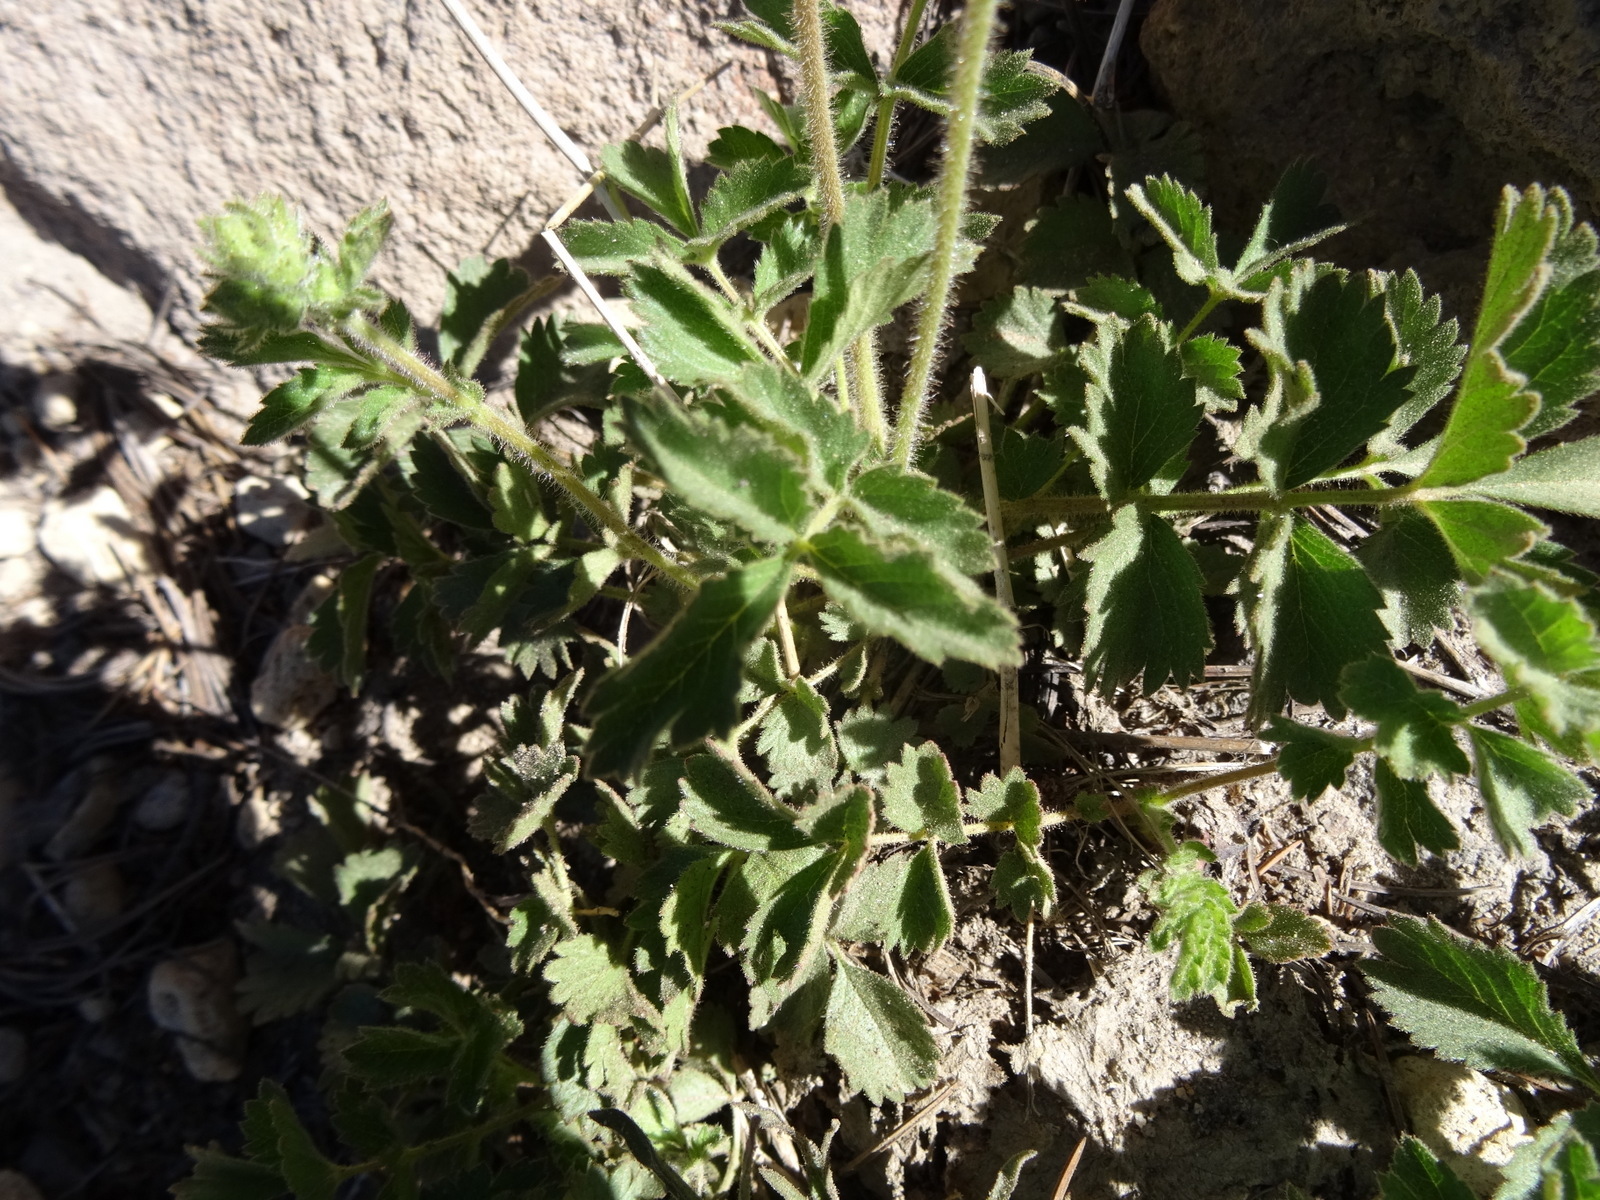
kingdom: Plantae
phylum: Tracheophyta
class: Magnoliopsida
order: Rosales
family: Rosaceae
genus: Drymocallis
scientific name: Drymocallis glandulosa
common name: Sticky cinquefoil
